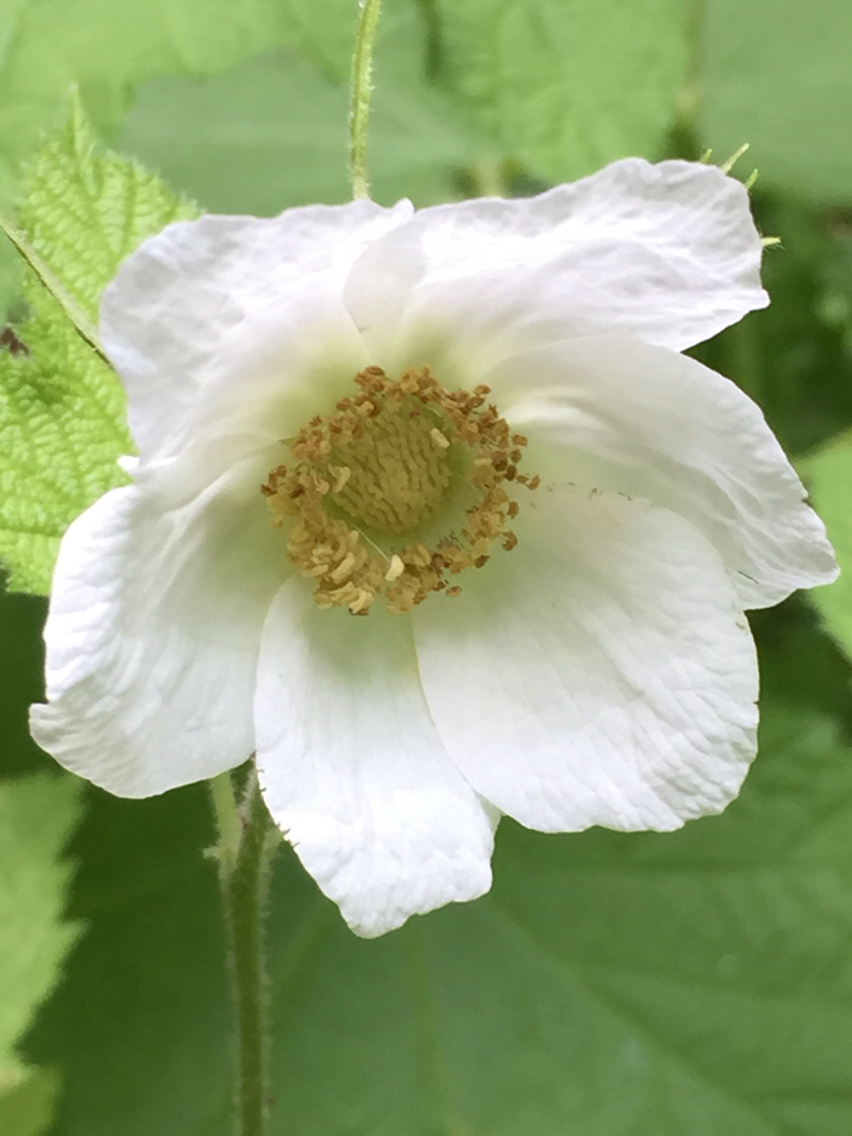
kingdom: Plantae
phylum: Tracheophyta
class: Magnoliopsida
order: Rosales
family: Rosaceae
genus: Rubus
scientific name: Rubus parviflorus
